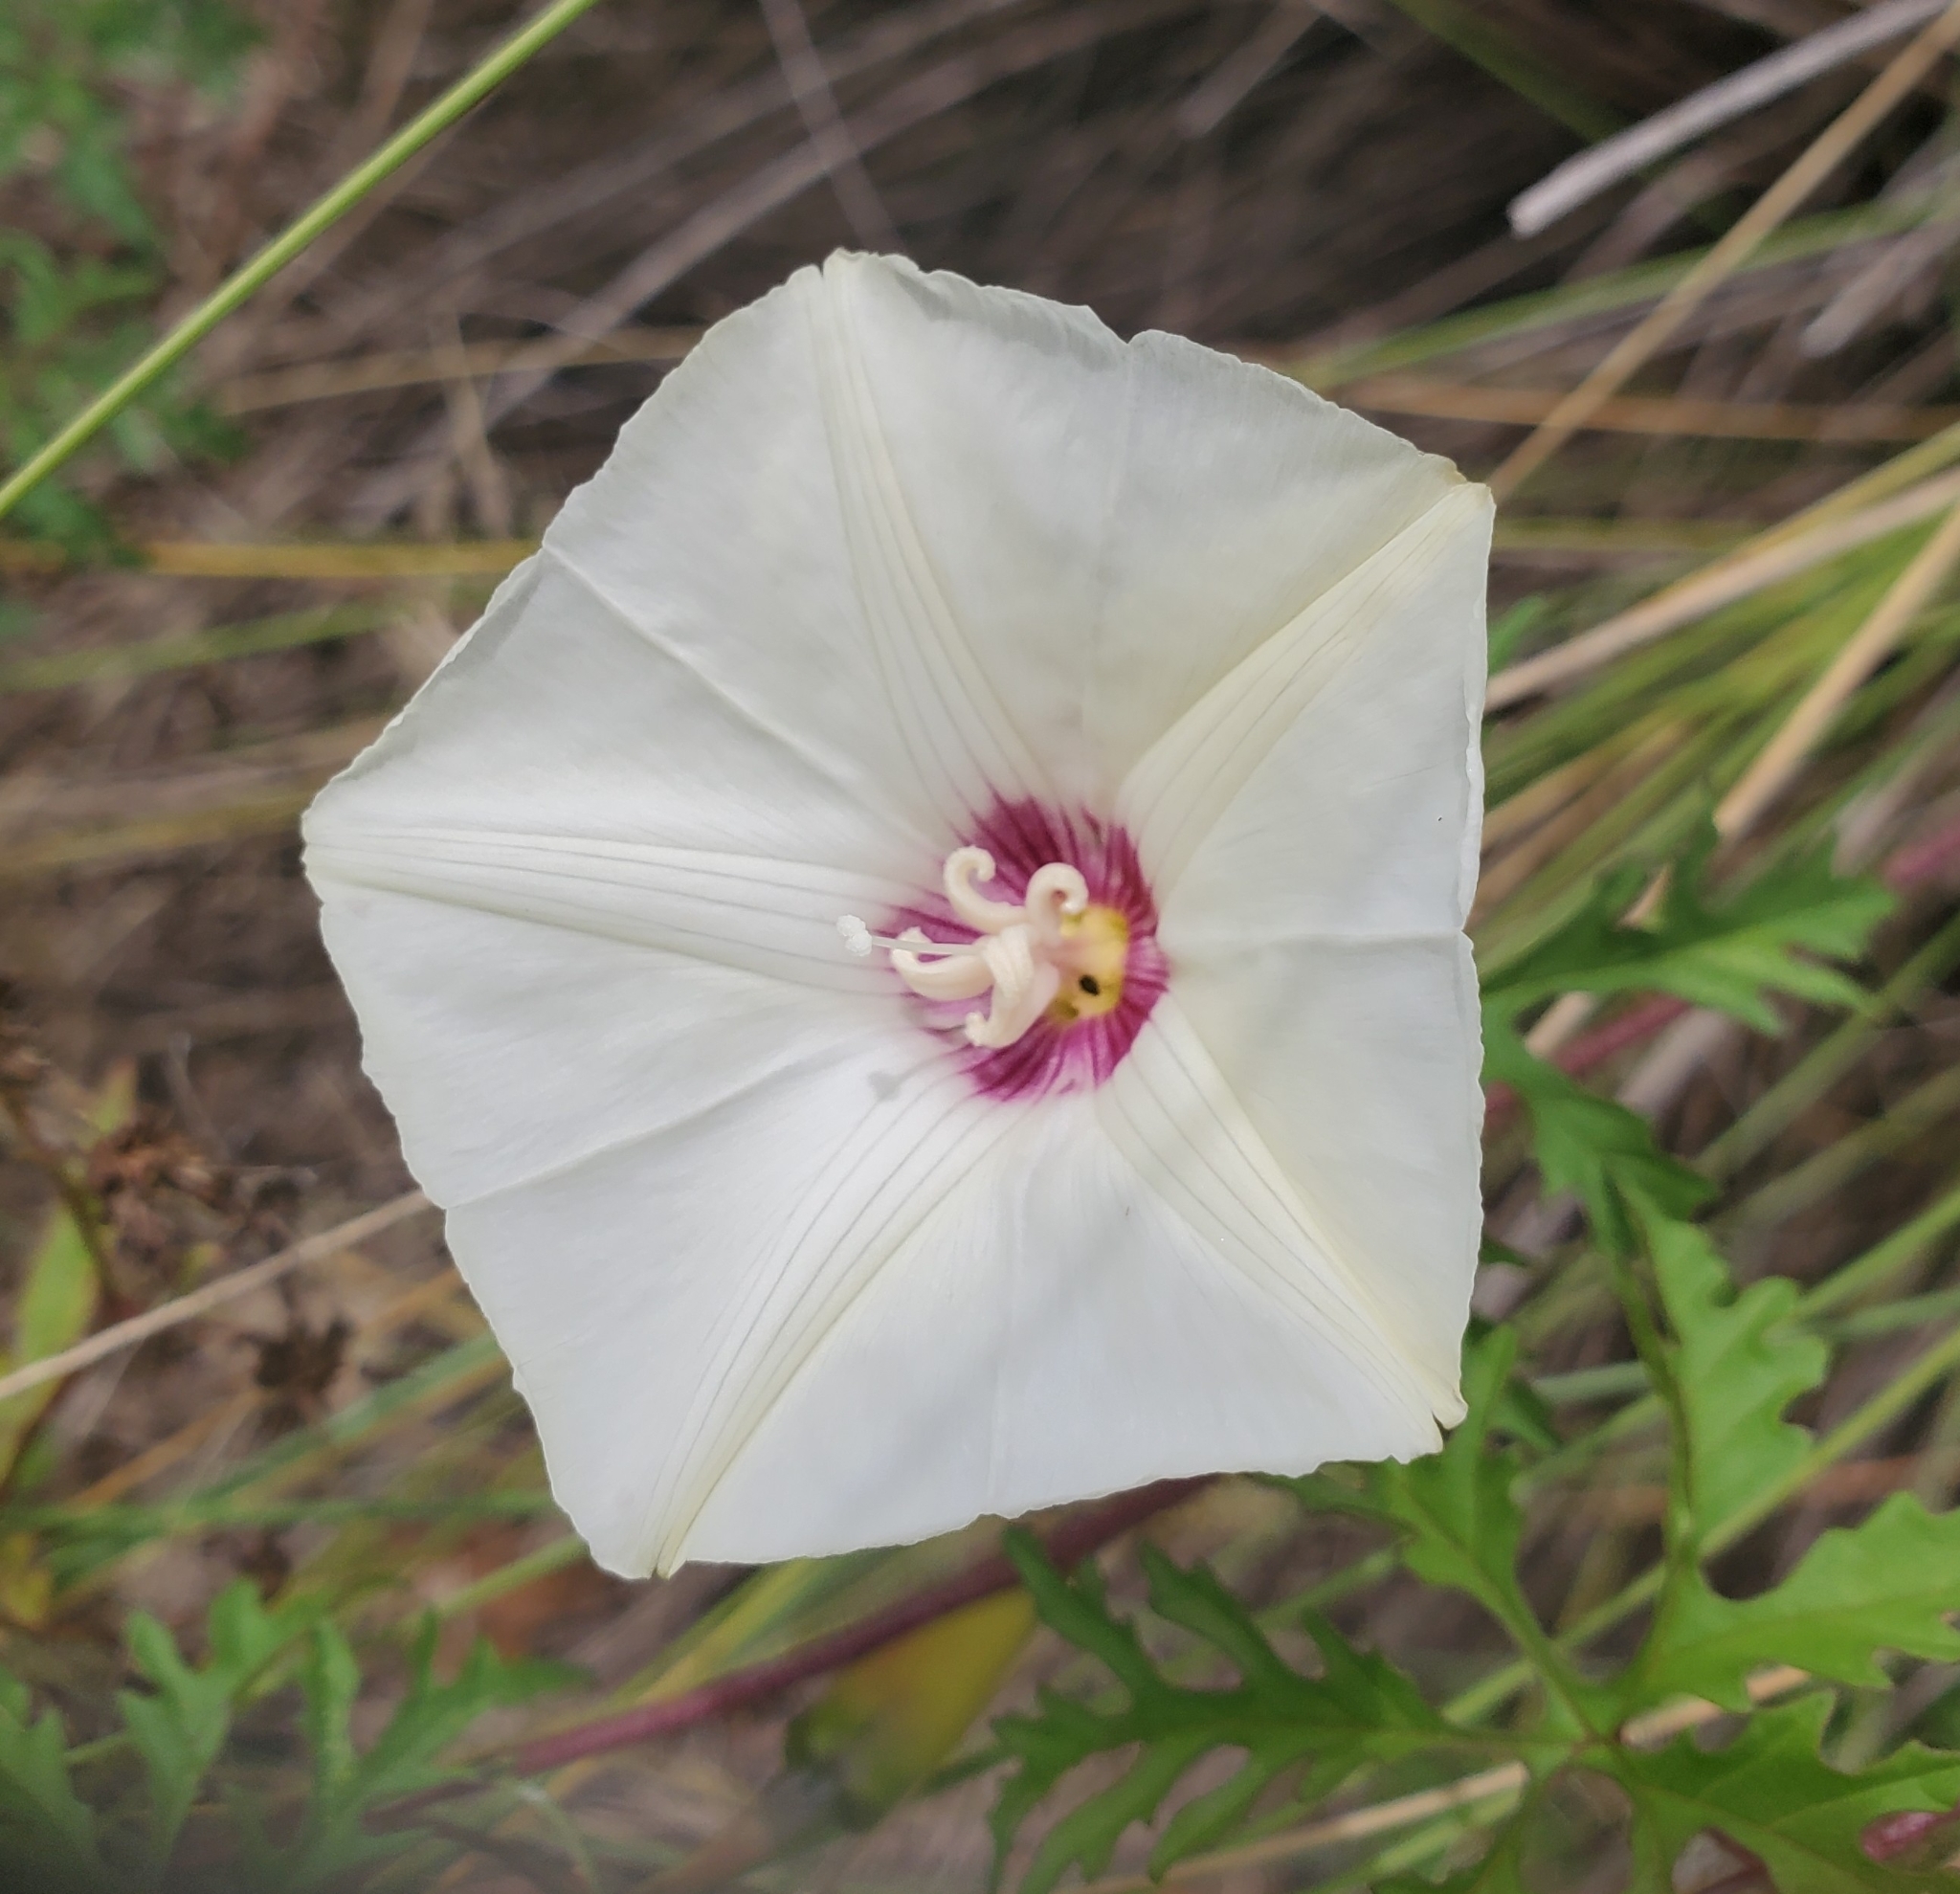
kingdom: Plantae
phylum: Tracheophyta
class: Magnoliopsida
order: Solanales
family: Convolvulaceae
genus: Distimake
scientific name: Distimake dissectus
